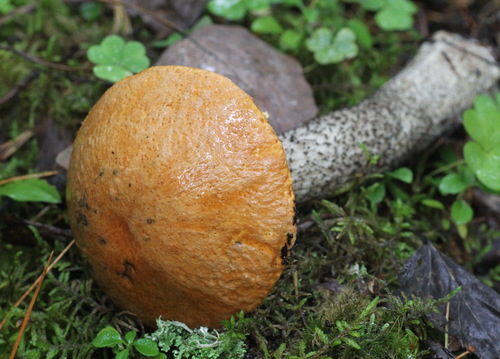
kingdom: Fungi
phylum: Basidiomycota
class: Agaricomycetes
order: Boletales
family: Boletaceae
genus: Leccinum
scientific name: Leccinum
